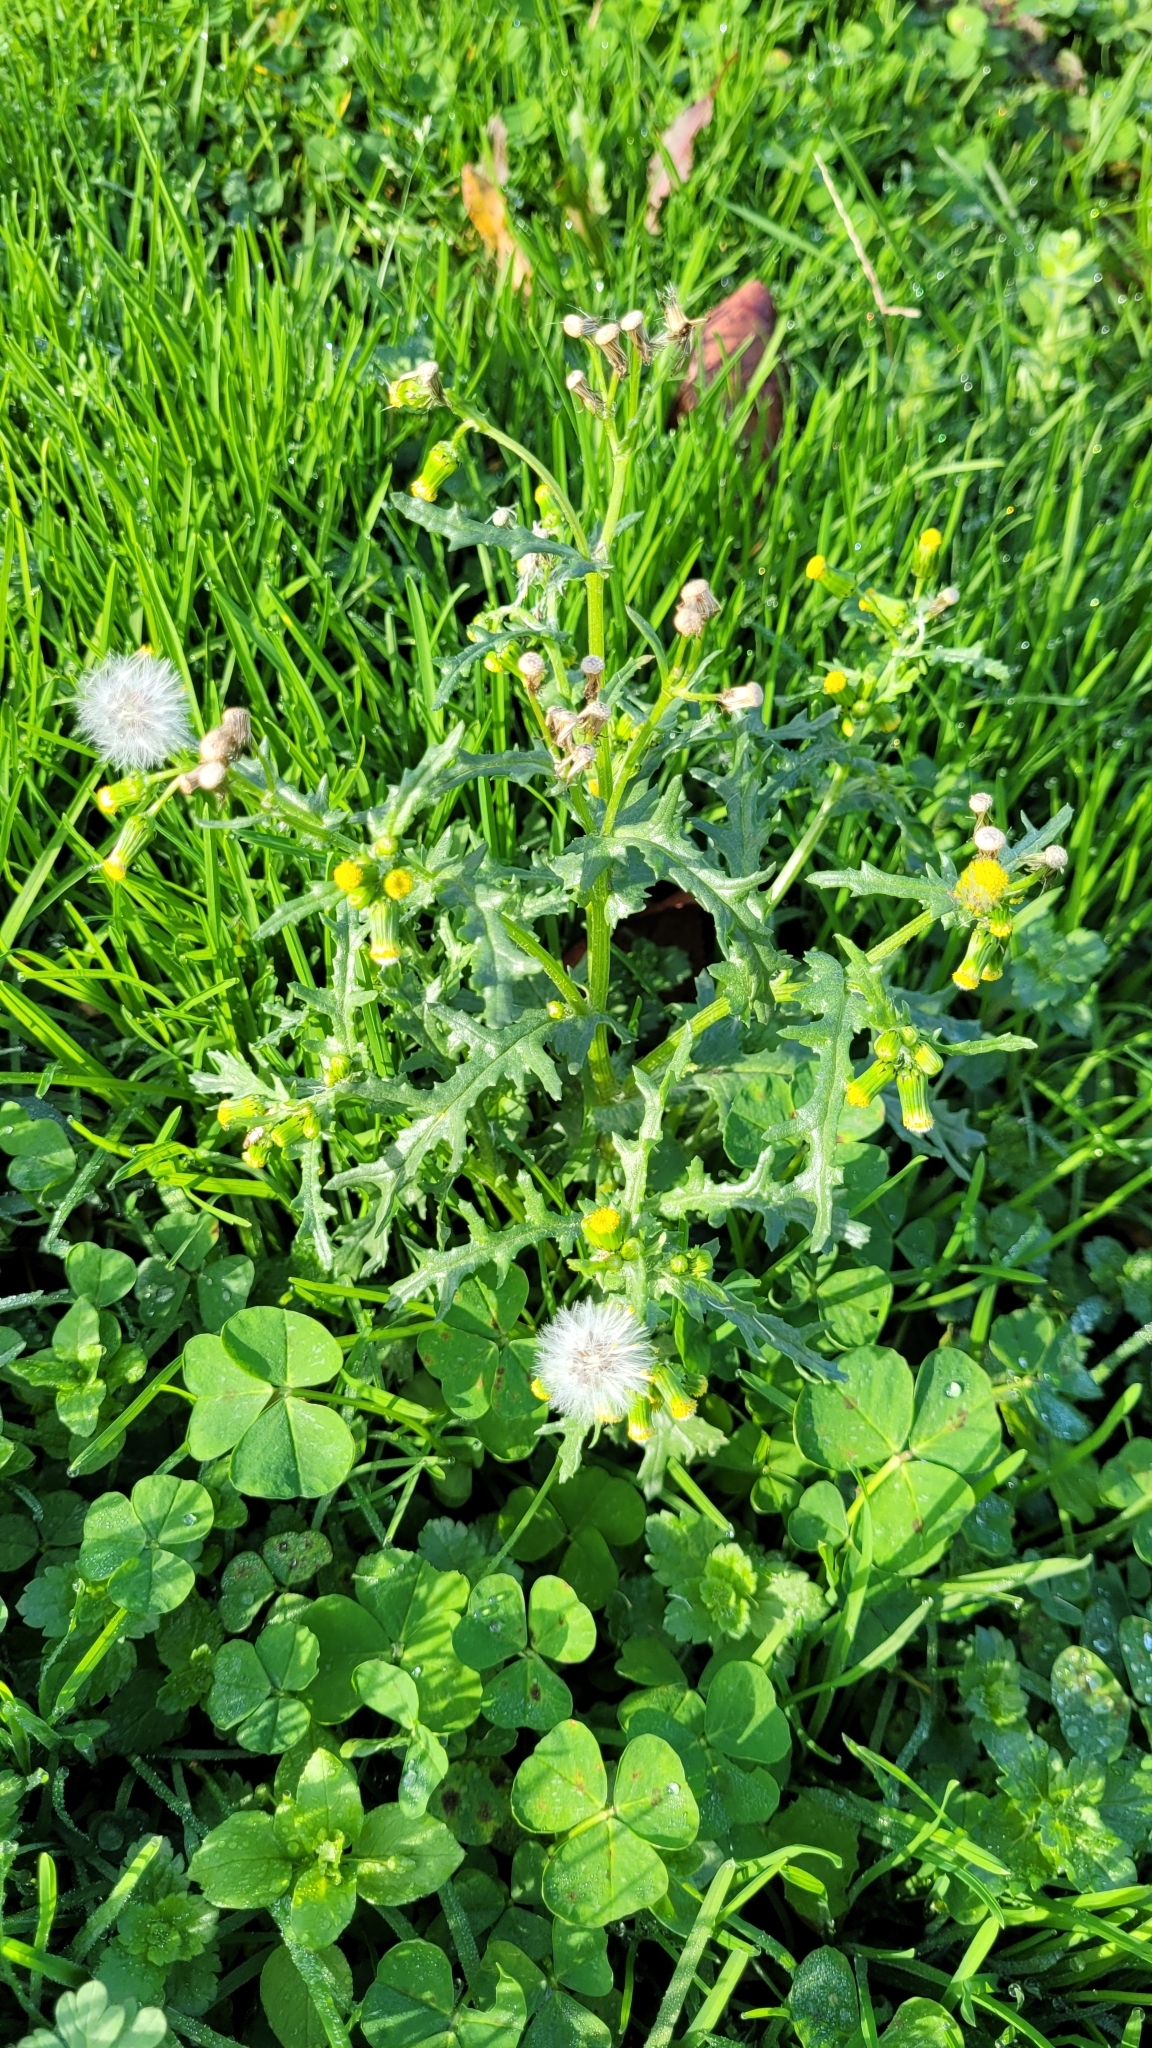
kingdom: Plantae
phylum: Tracheophyta
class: Magnoliopsida
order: Asterales
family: Asteraceae
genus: Senecio
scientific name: Senecio vulgaris
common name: Old-man-in-the-spring
